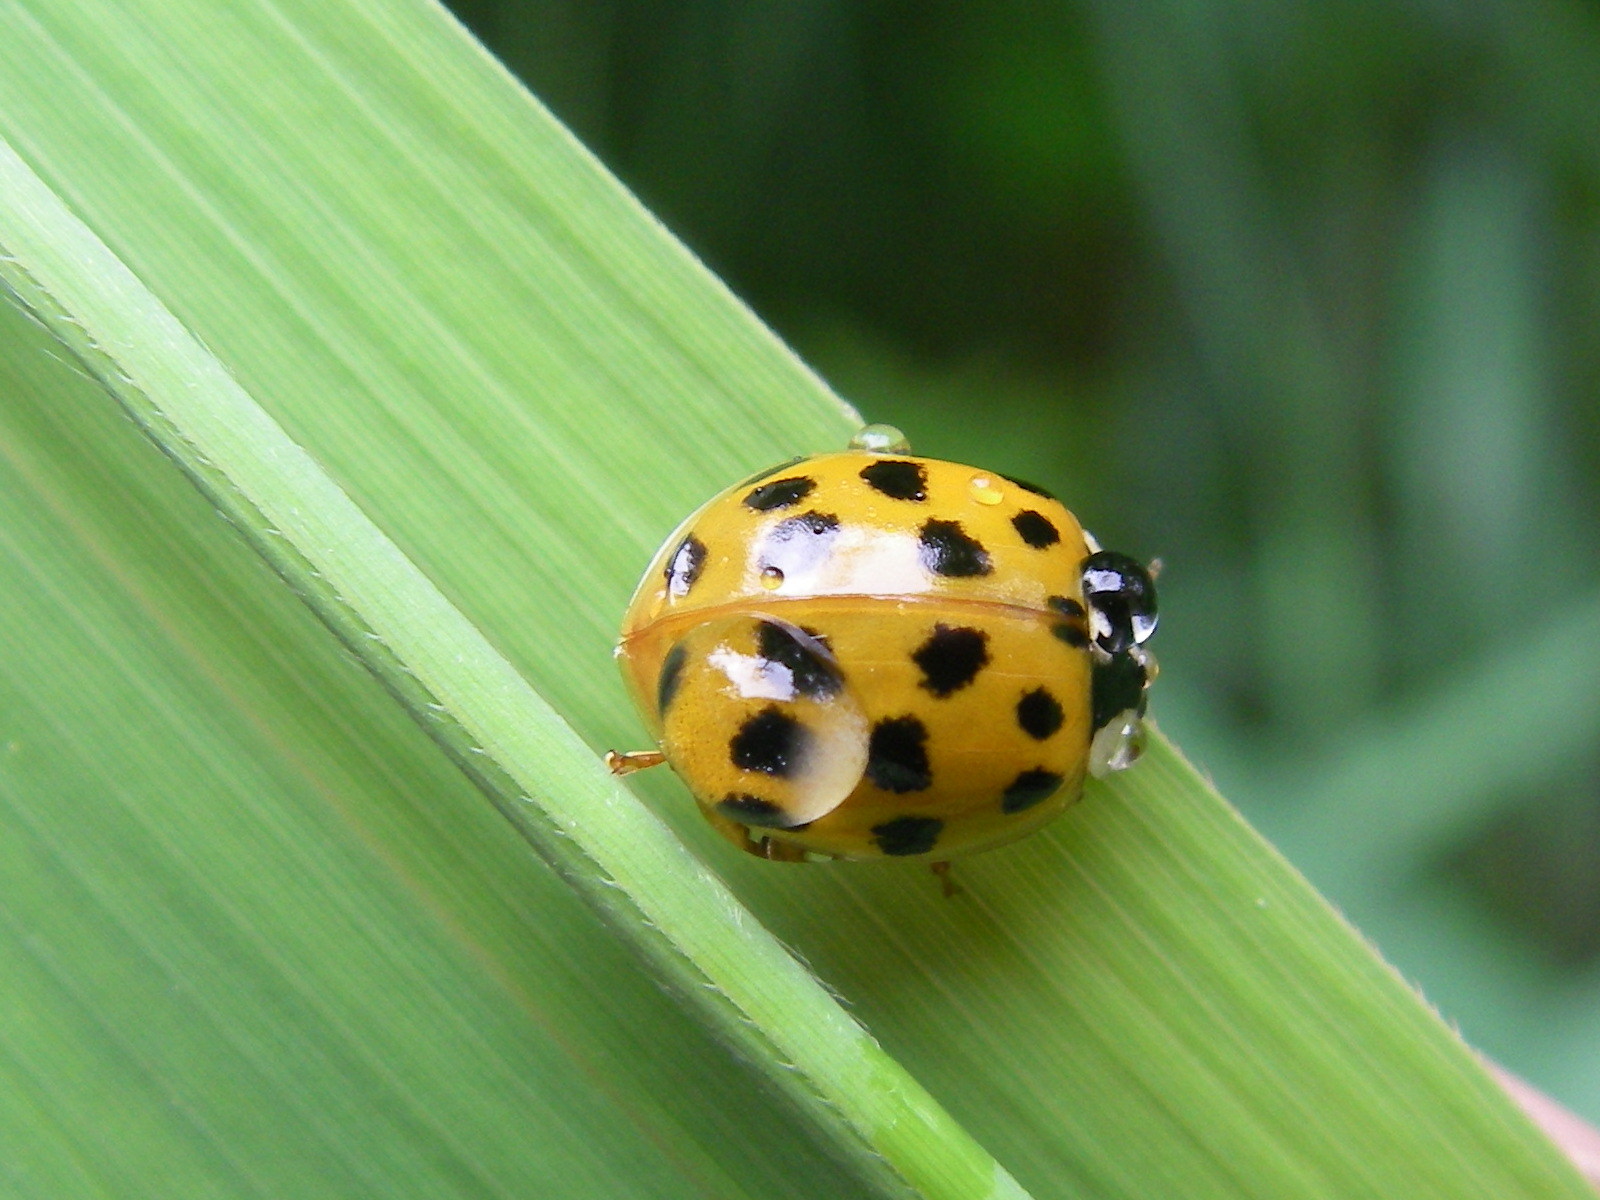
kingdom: Animalia
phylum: Arthropoda
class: Insecta
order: Coleoptera
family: Coccinellidae
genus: Harmonia
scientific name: Harmonia axyridis
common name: Harlequin ladybird
